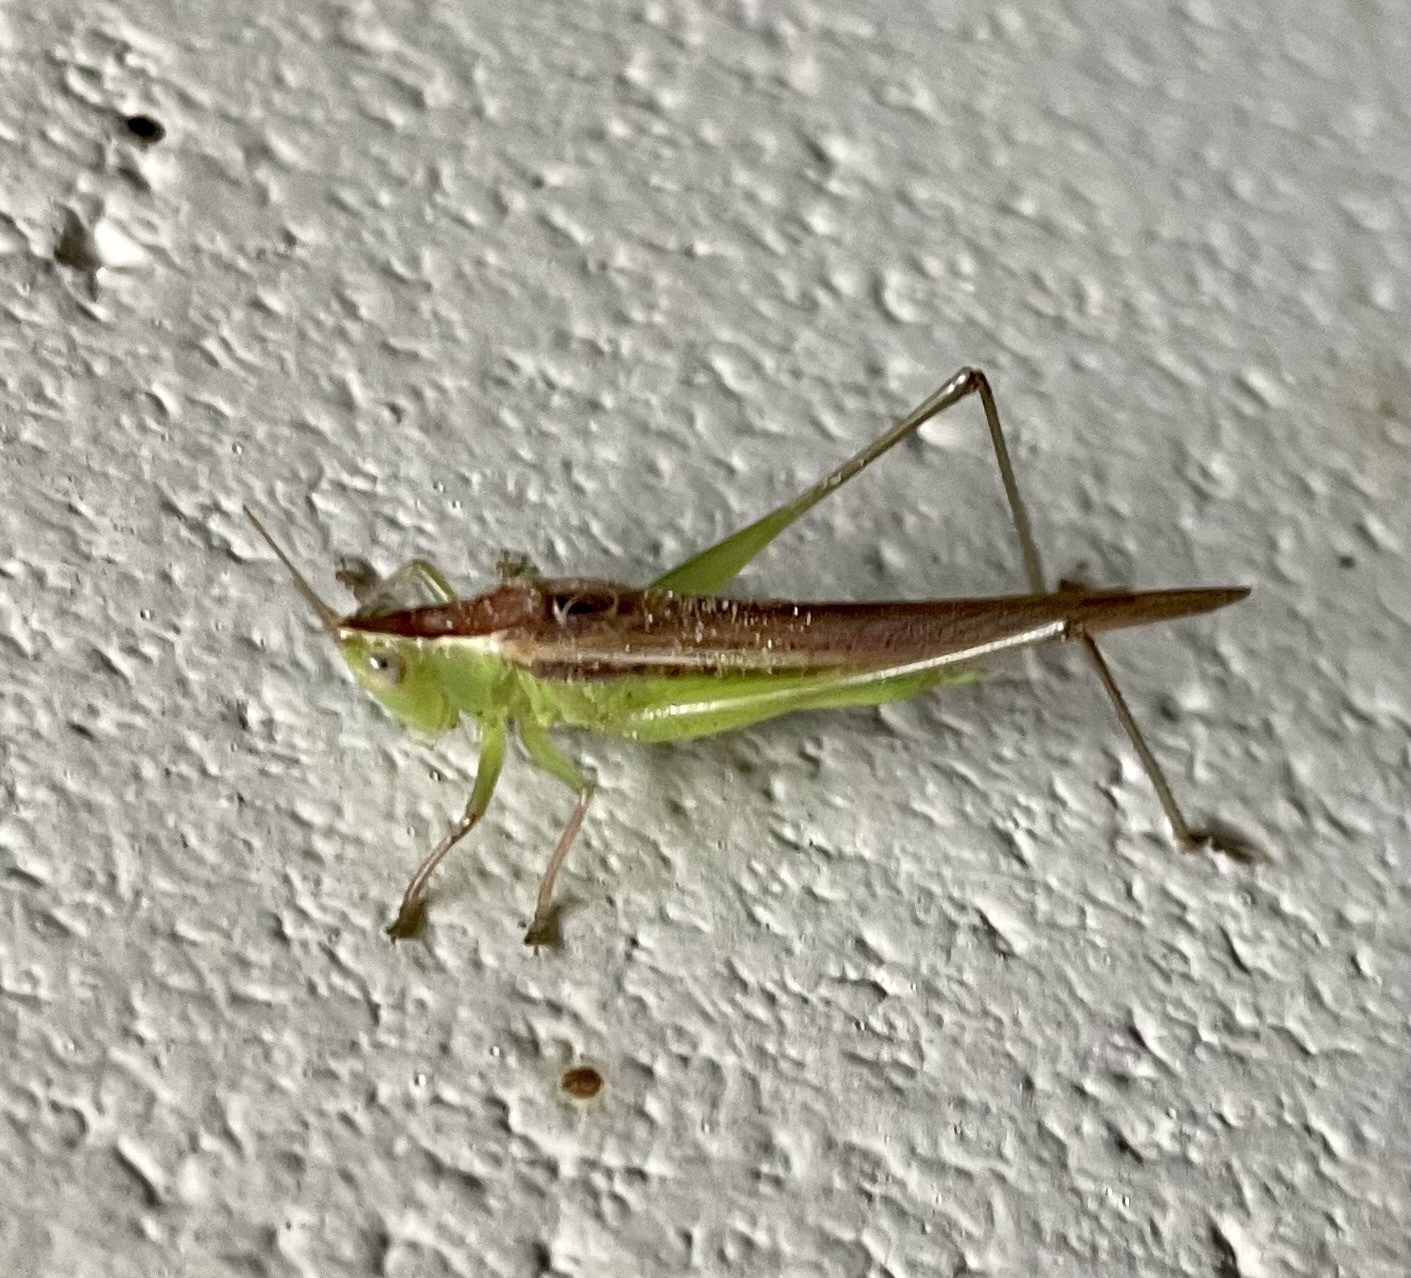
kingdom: Animalia
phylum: Arthropoda
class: Insecta
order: Orthoptera
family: Tettigoniidae
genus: Conocephalus
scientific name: Conocephalus upoluensis
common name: Upolu meadow katydid
